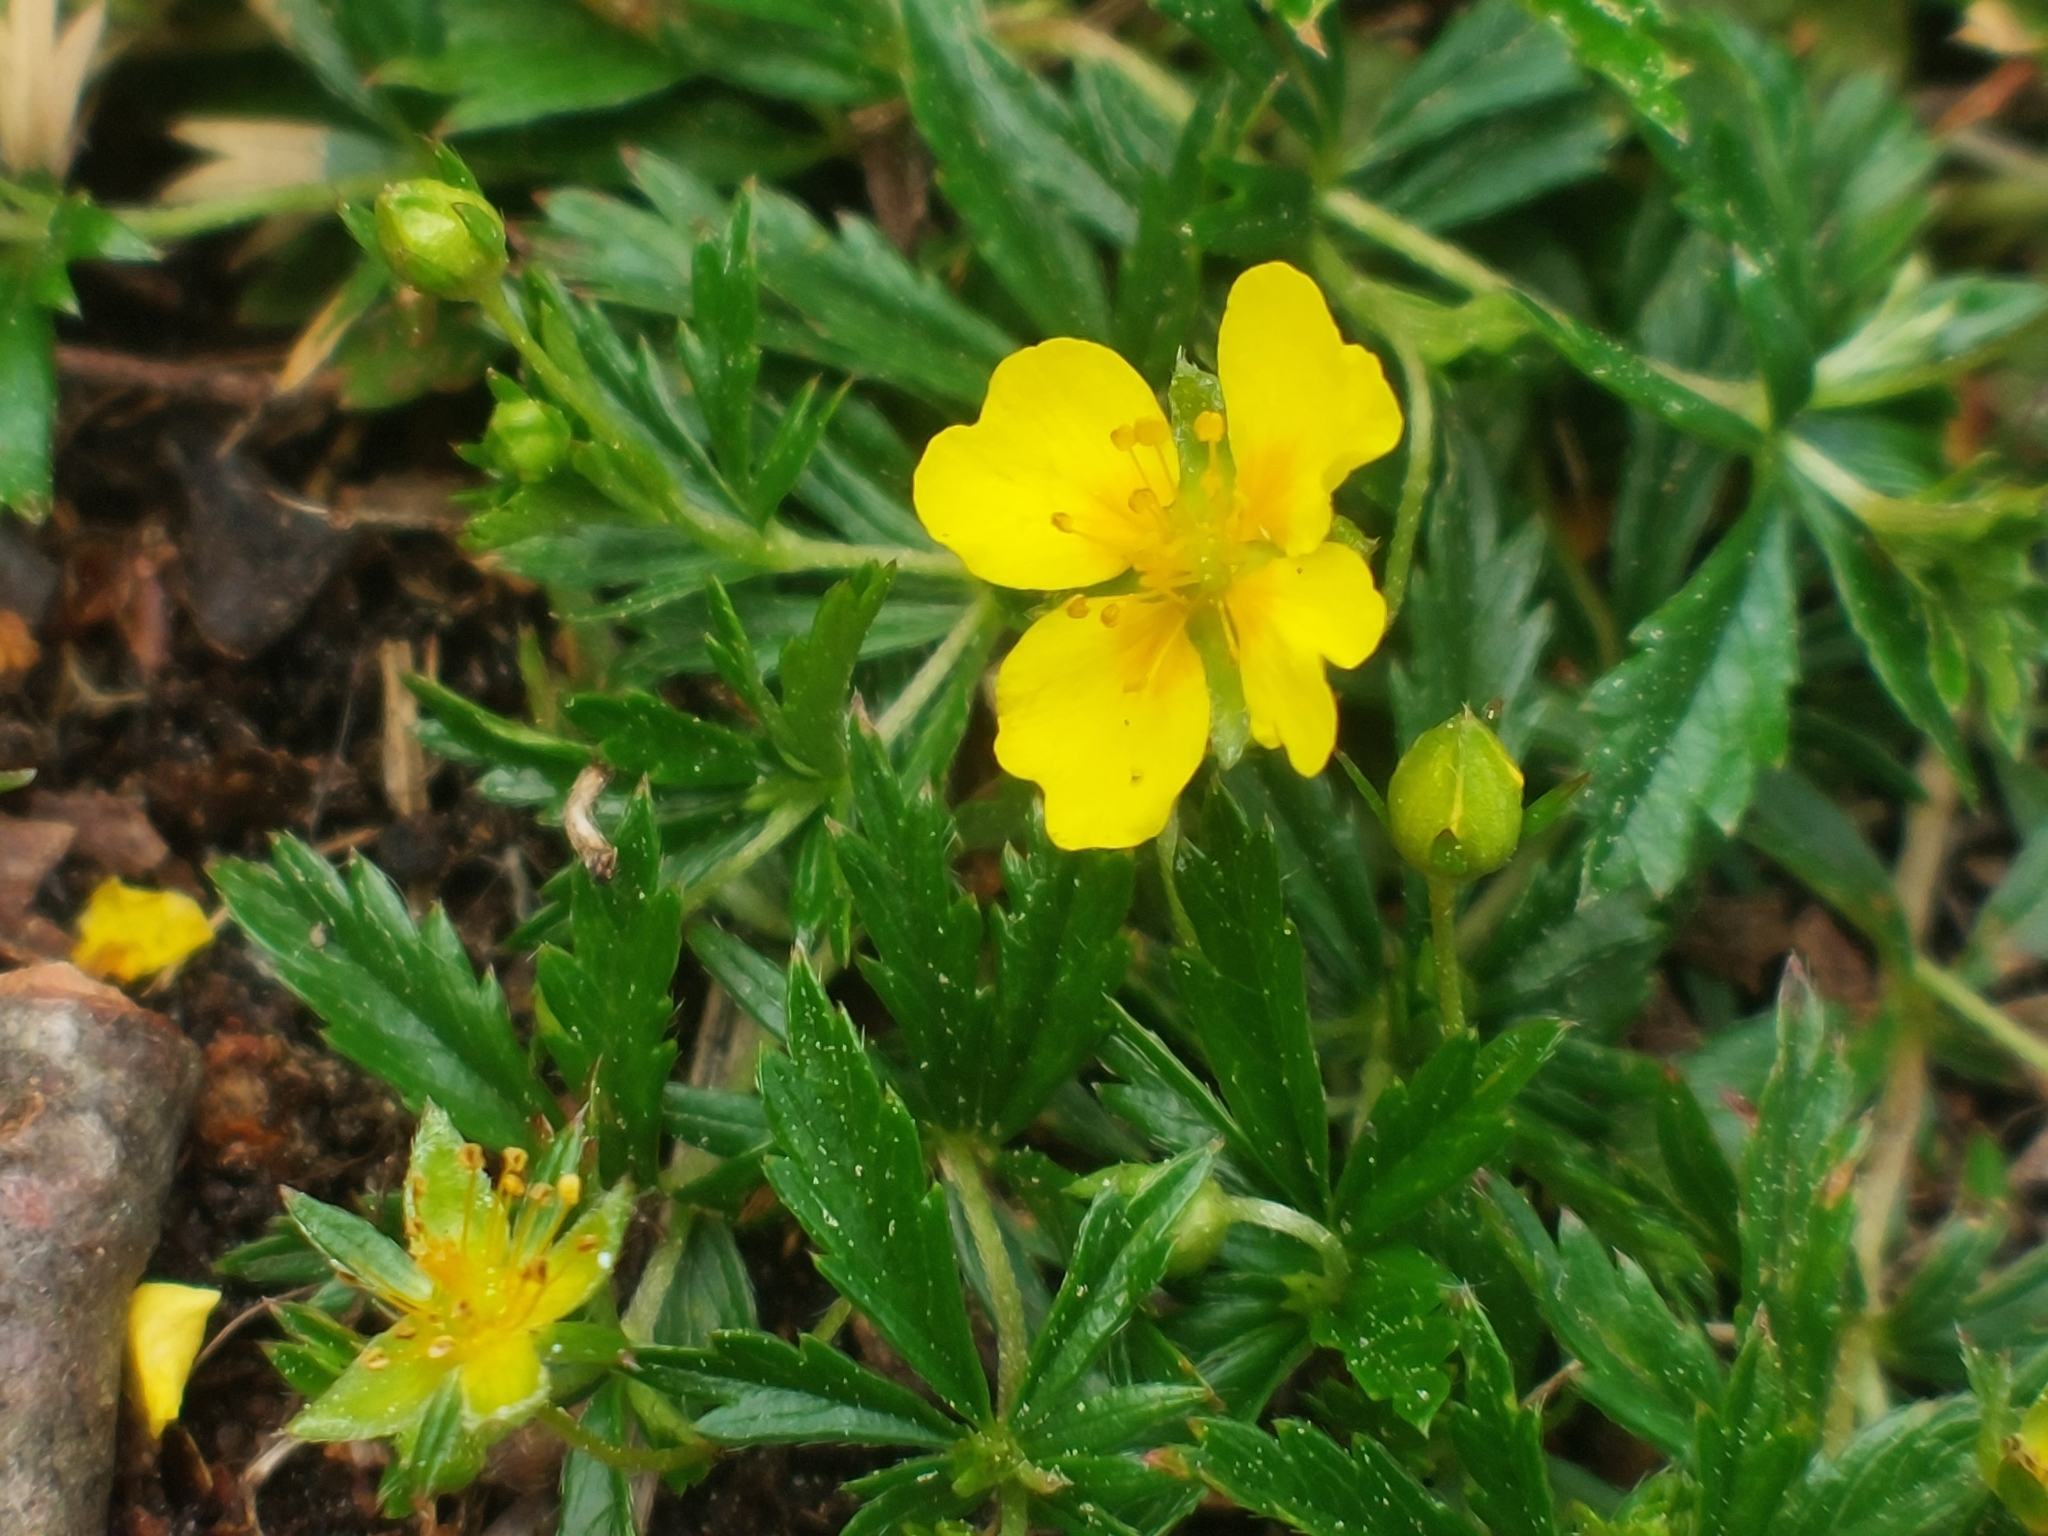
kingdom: Plantae
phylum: Tracheophyta
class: Magnoliopsida
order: Rosales
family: Rosaceae
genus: Potentilla
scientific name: Potentilla erecta
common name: Tormentil
